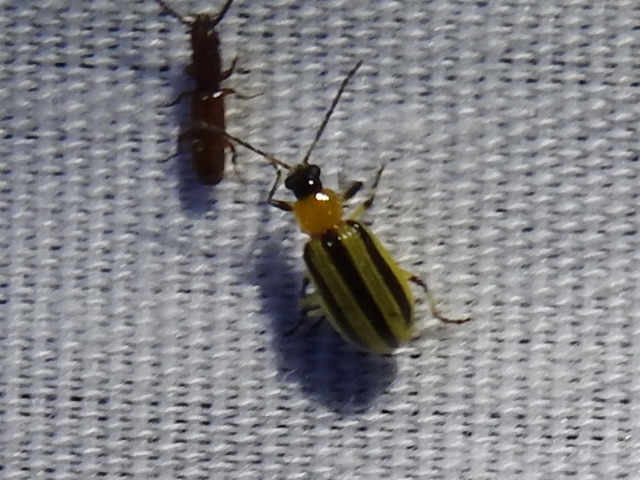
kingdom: Animalia
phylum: Arthropoda
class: Insecta
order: Coleoptera
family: Chrysomelidae
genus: Acalymma
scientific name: Acalymma vittatum
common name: Striped cucumber beetle
